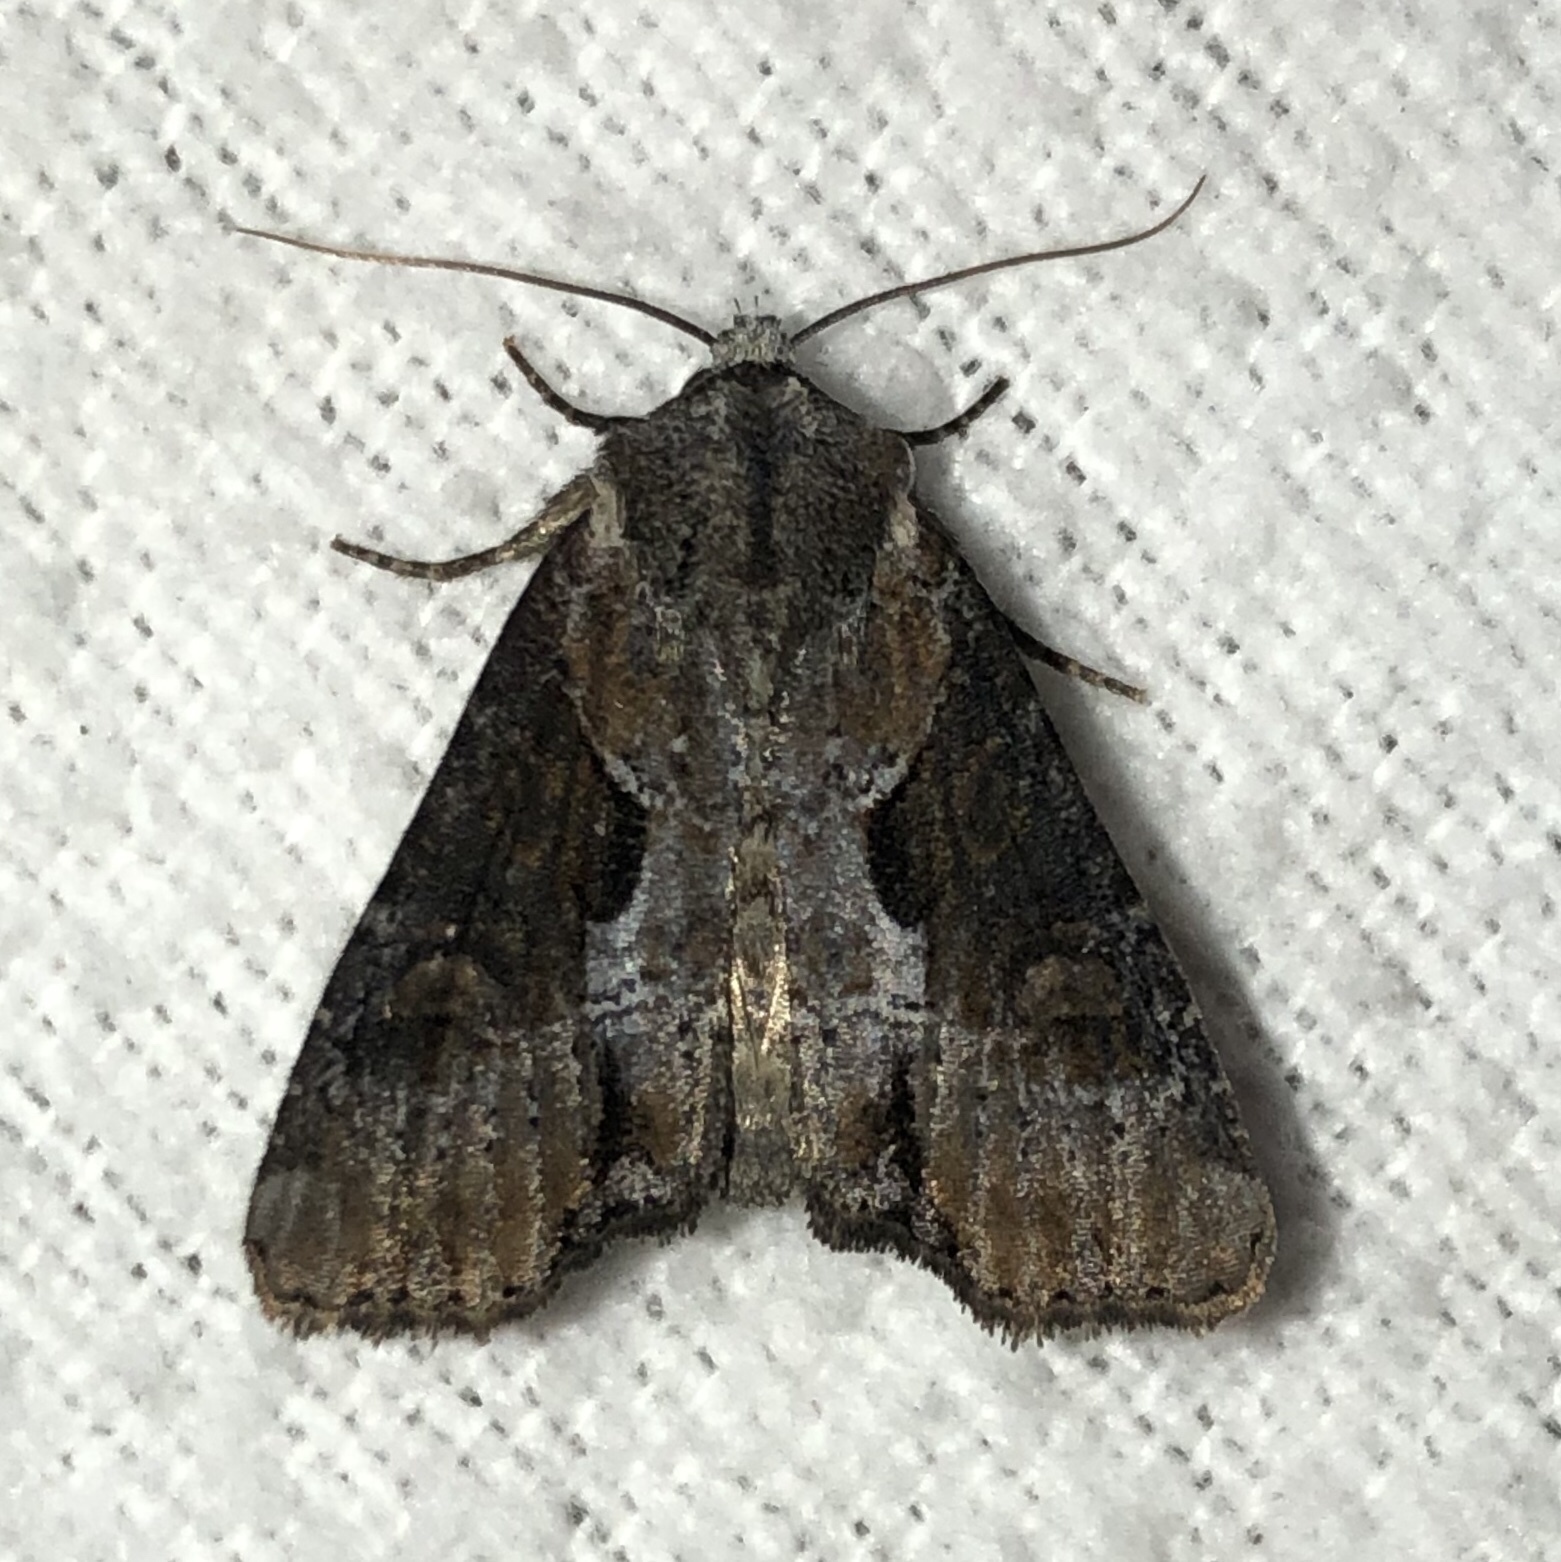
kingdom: Animalia
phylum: Arthropoda
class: Insecta
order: Lepidoptera
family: Noctuidae
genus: Lateroligia
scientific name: Lateroligia ophiogramma
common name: Double lobed
